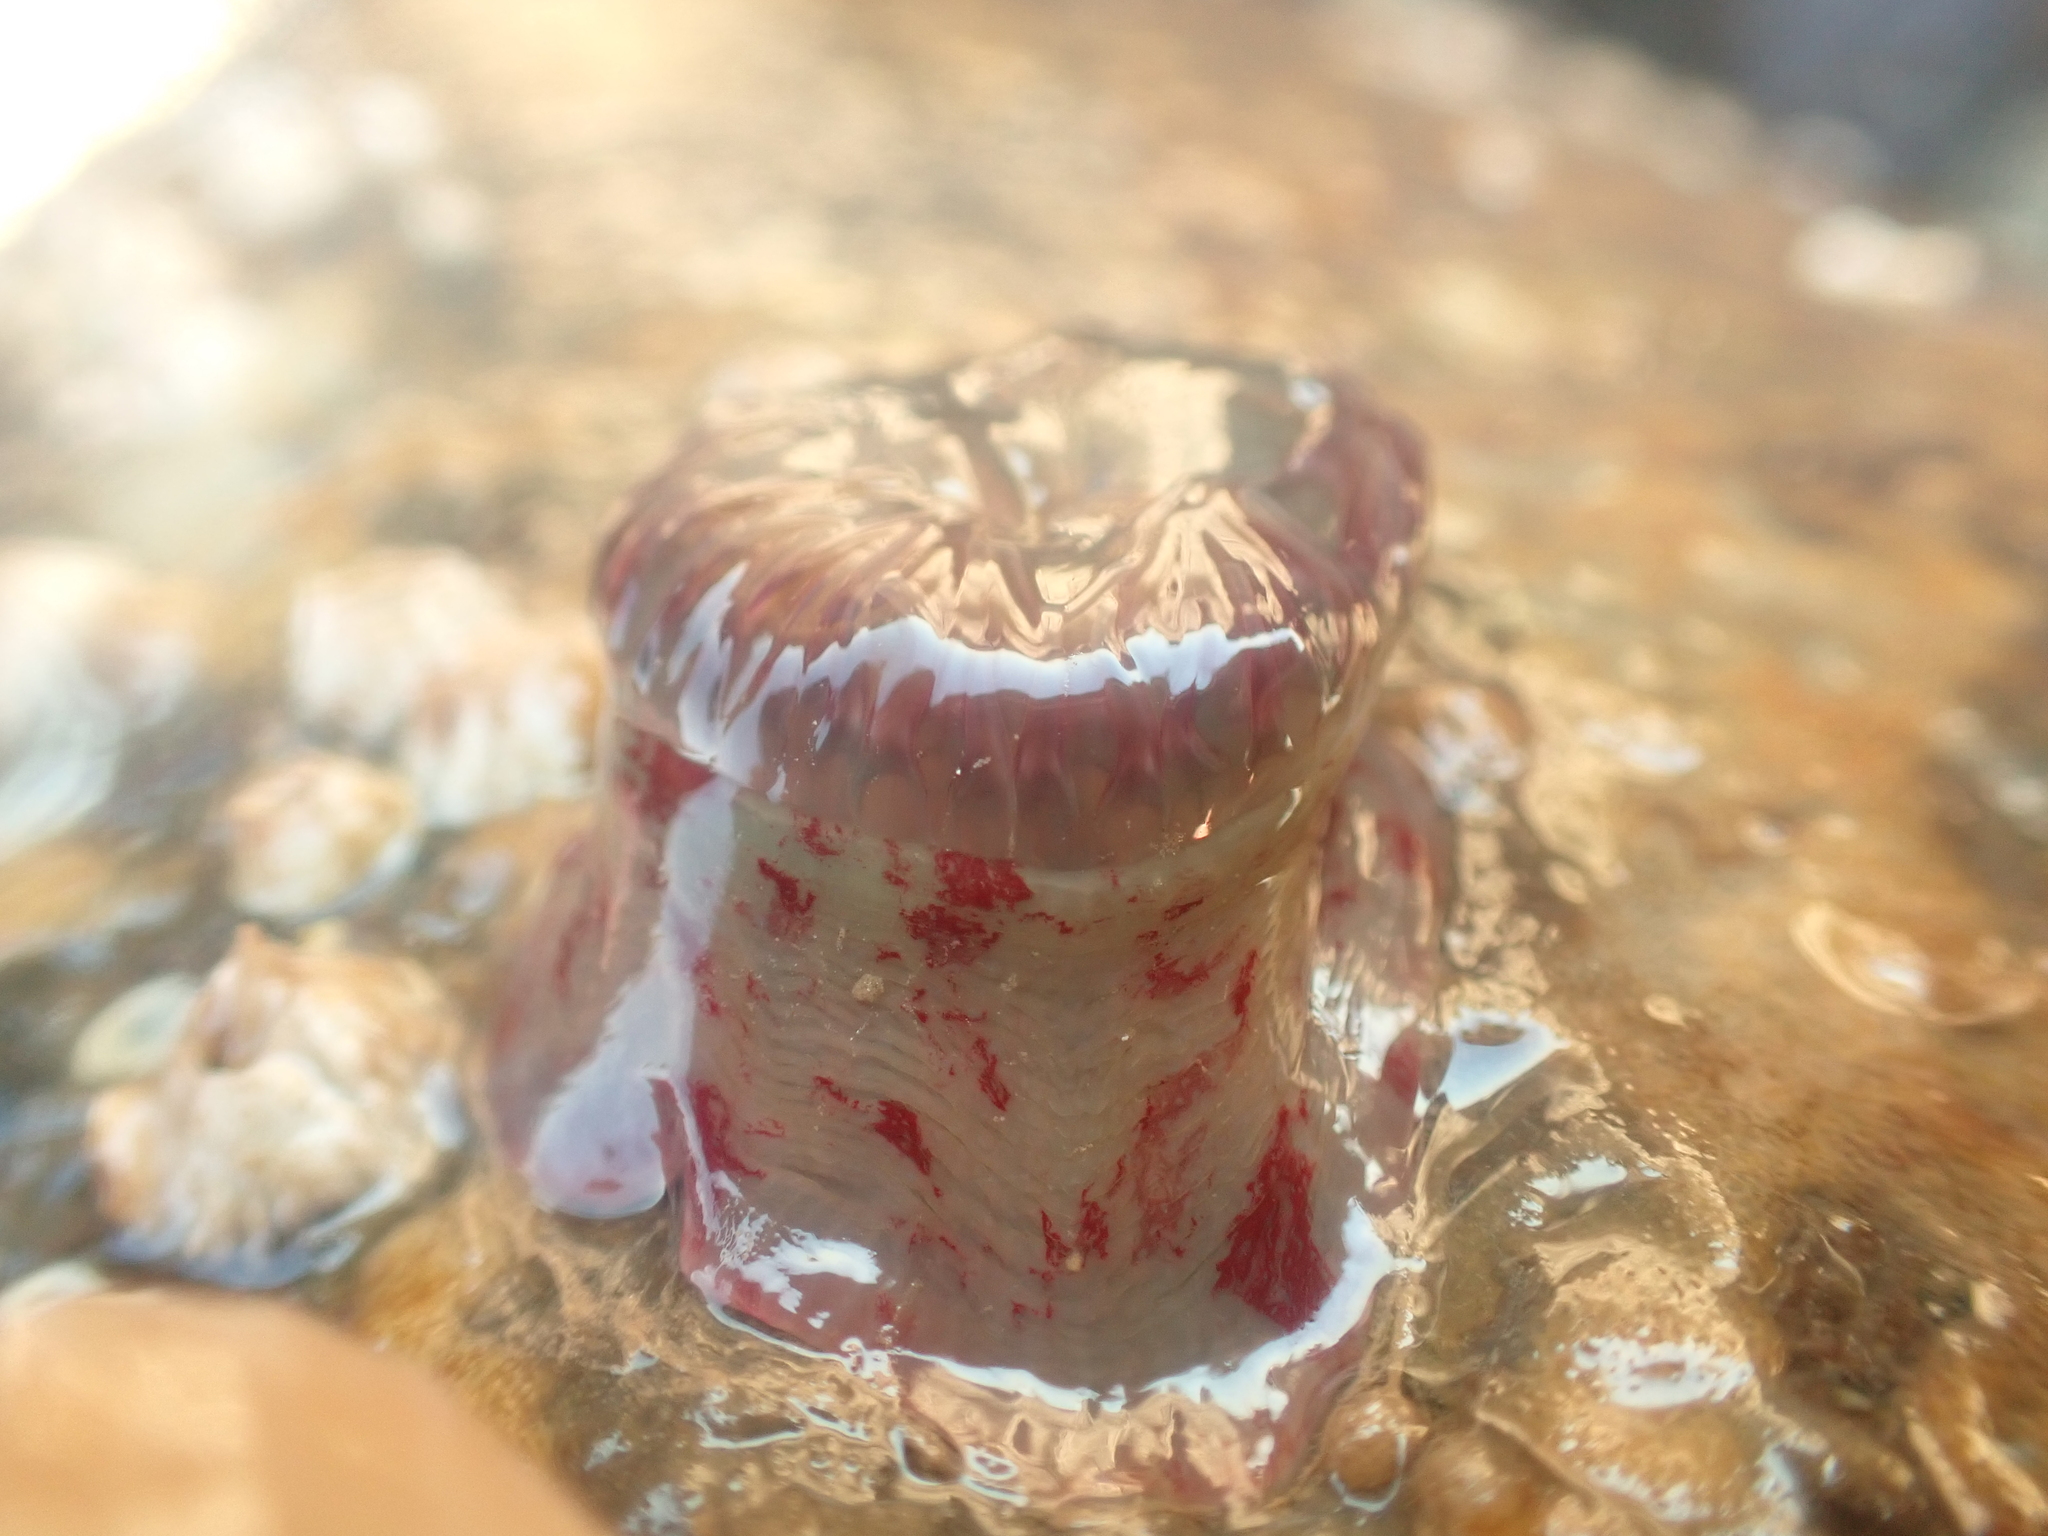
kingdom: Animalia
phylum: Cnidaria
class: Anthozoa
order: Actiniaria
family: Actiniidae
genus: Urticina
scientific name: Urticina crassicornis
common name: Mottled anemone
